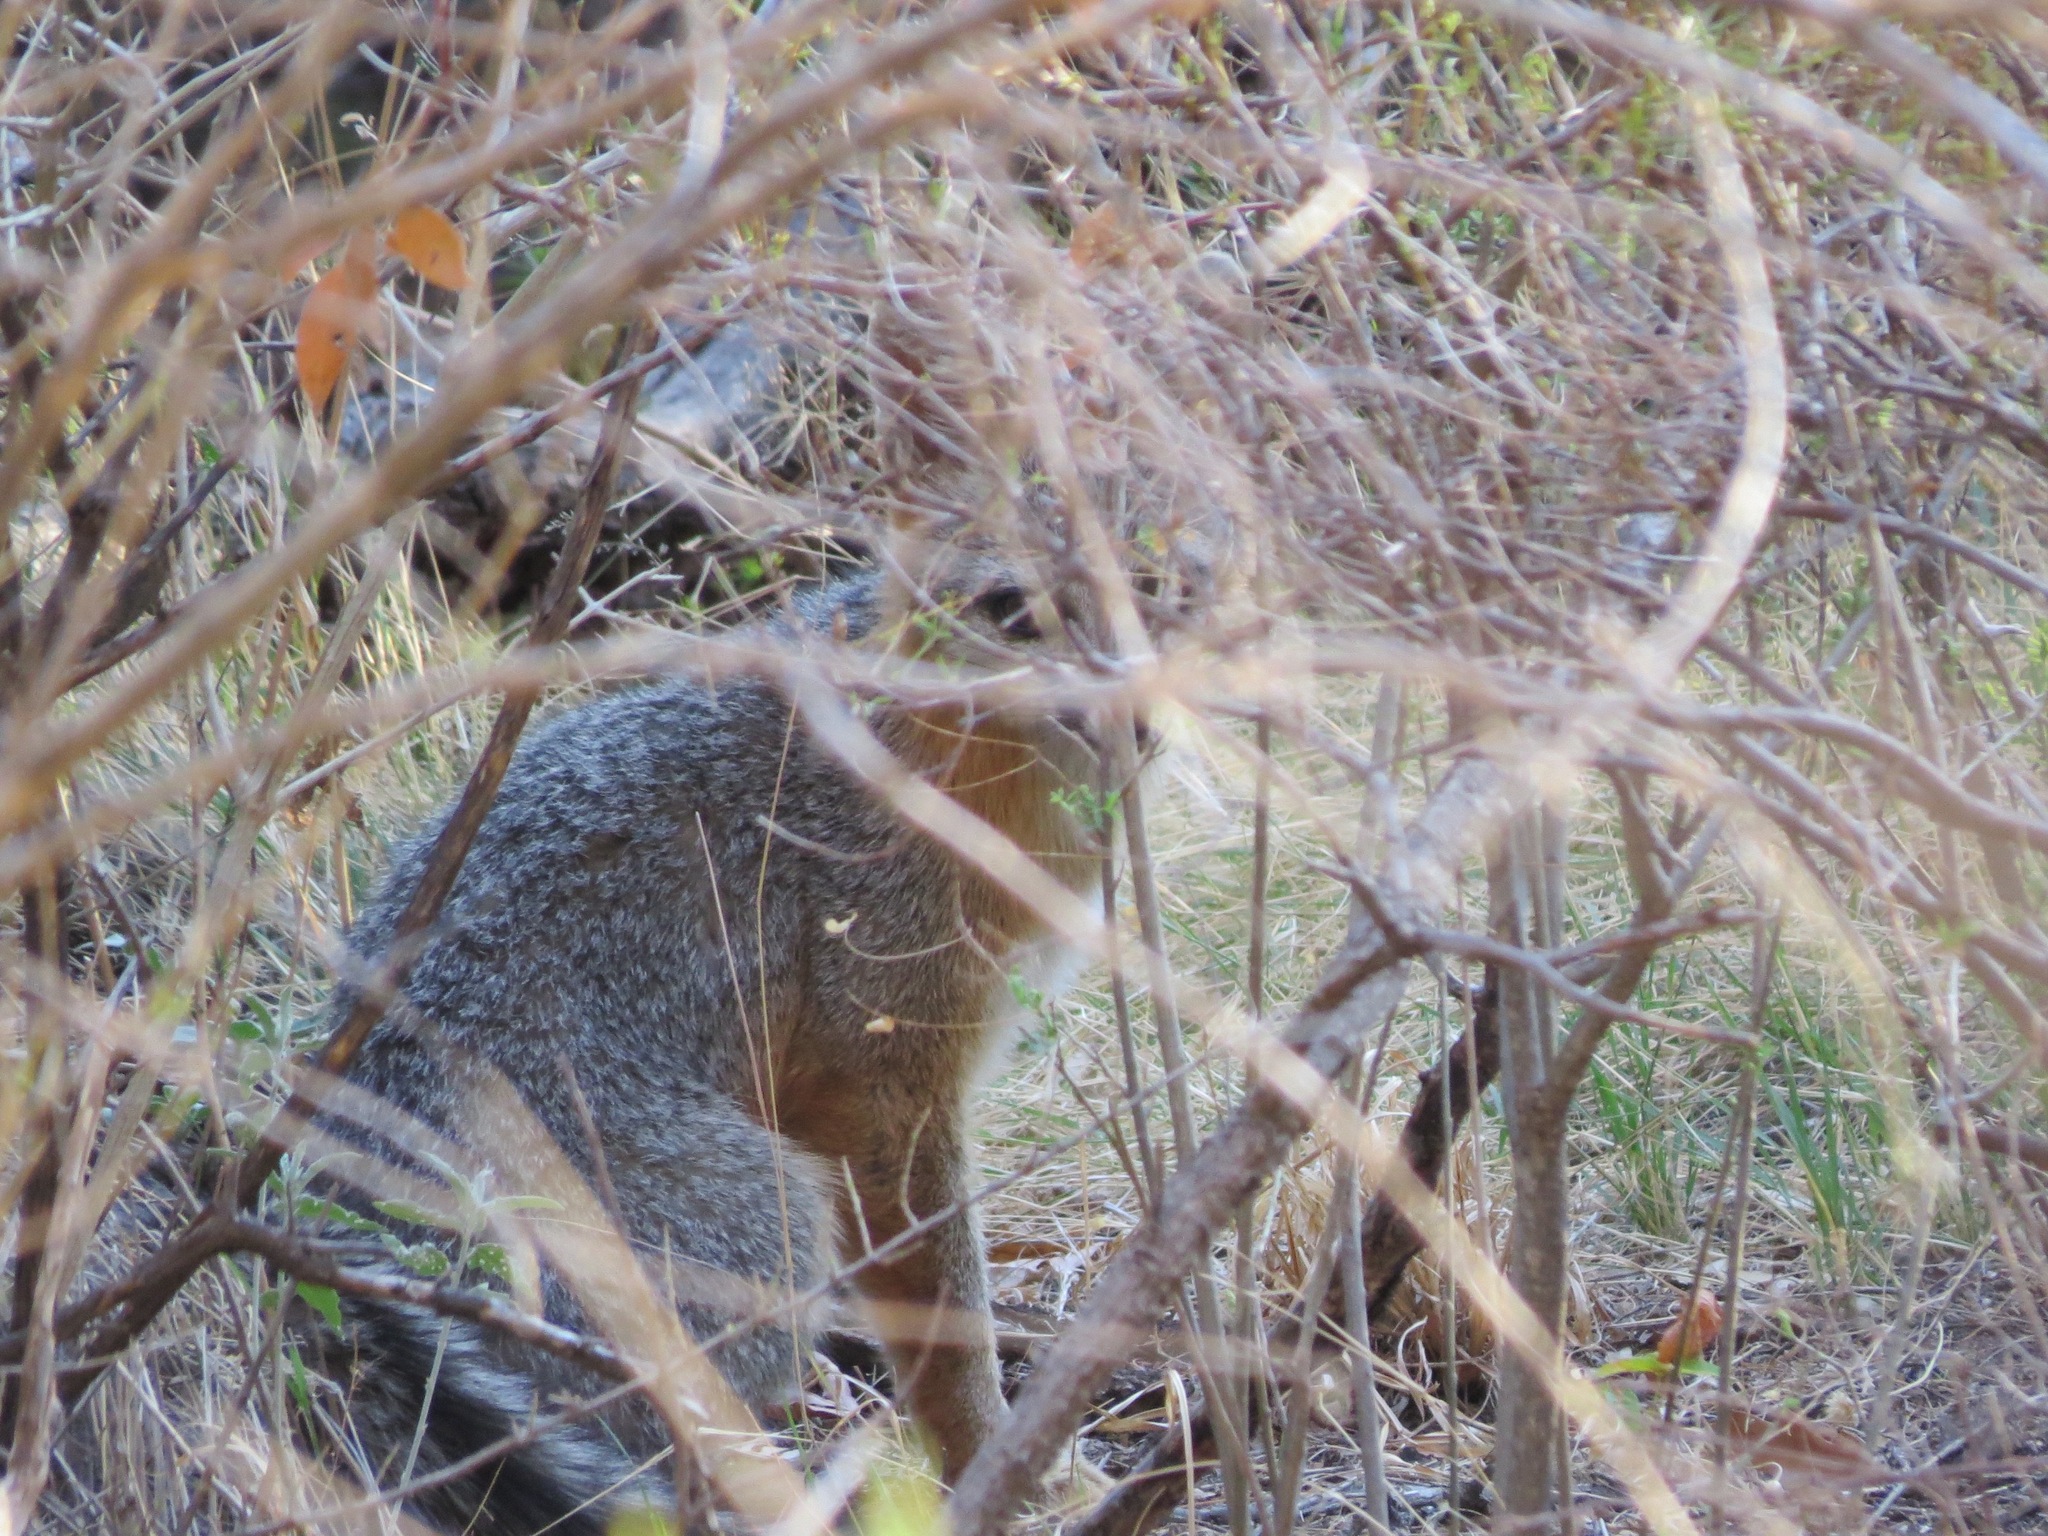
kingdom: Animalia
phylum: Chordata
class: Mammalia
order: Carnivora
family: Canidae
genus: Urocyon
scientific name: Urocyon cinereoargenteus
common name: Gray fox
